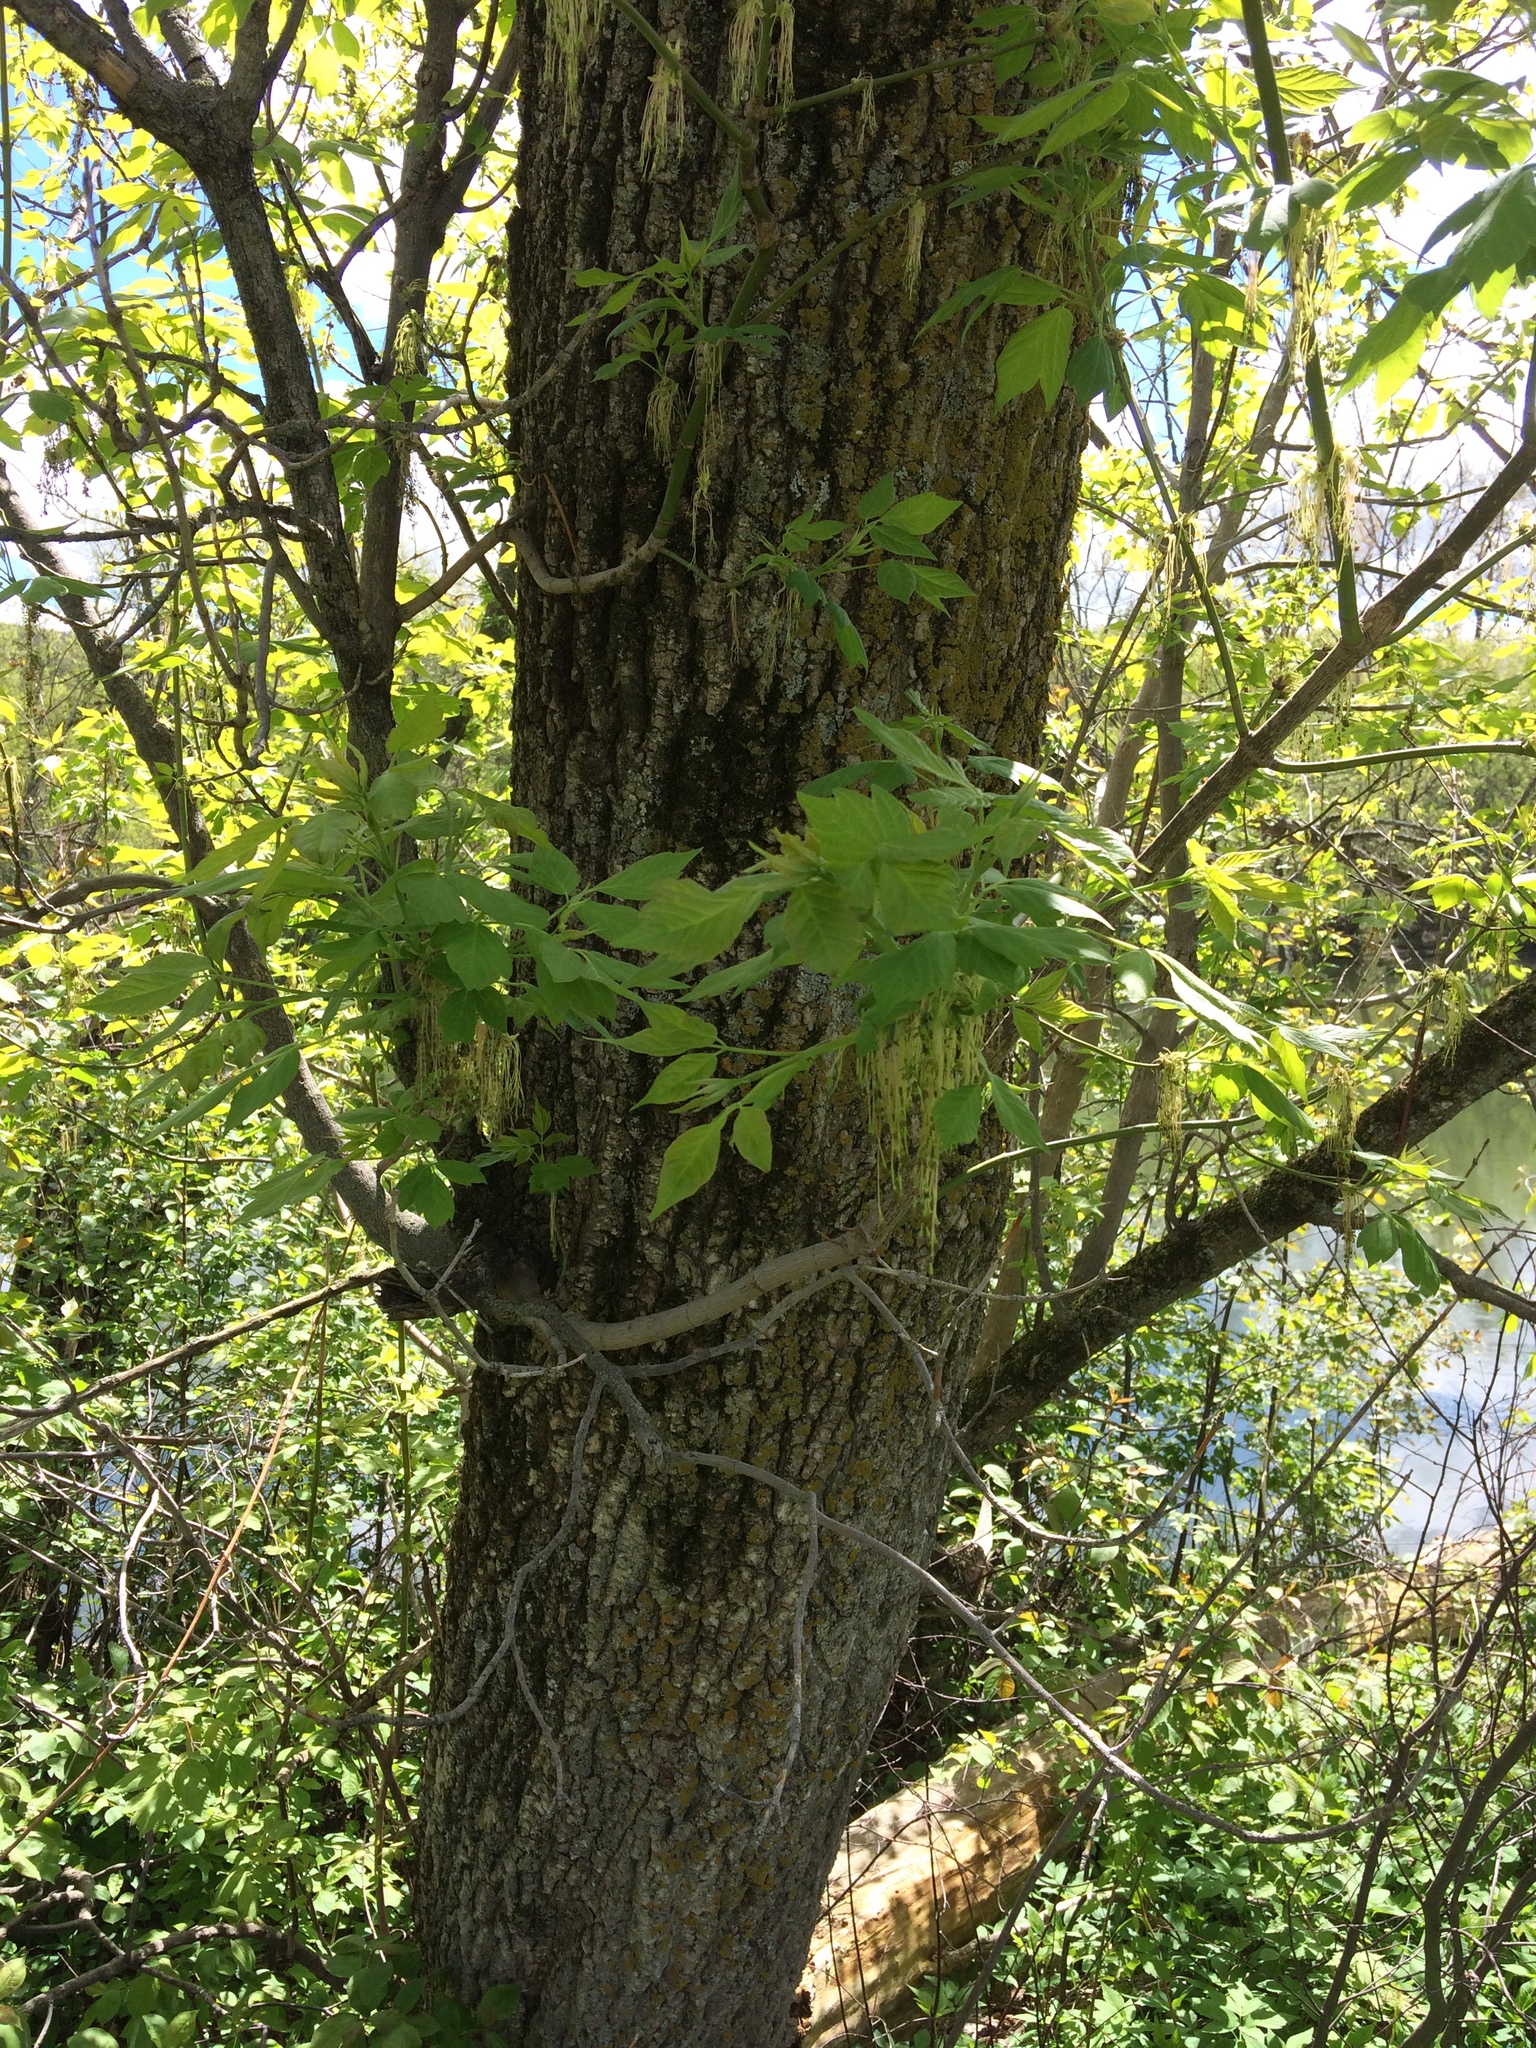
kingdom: Plantae
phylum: Tracheophyta
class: Magnoliopsida
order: Sapindales
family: Sapindaceae
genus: Acer
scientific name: Acer negundo
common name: Ashleaf maple
